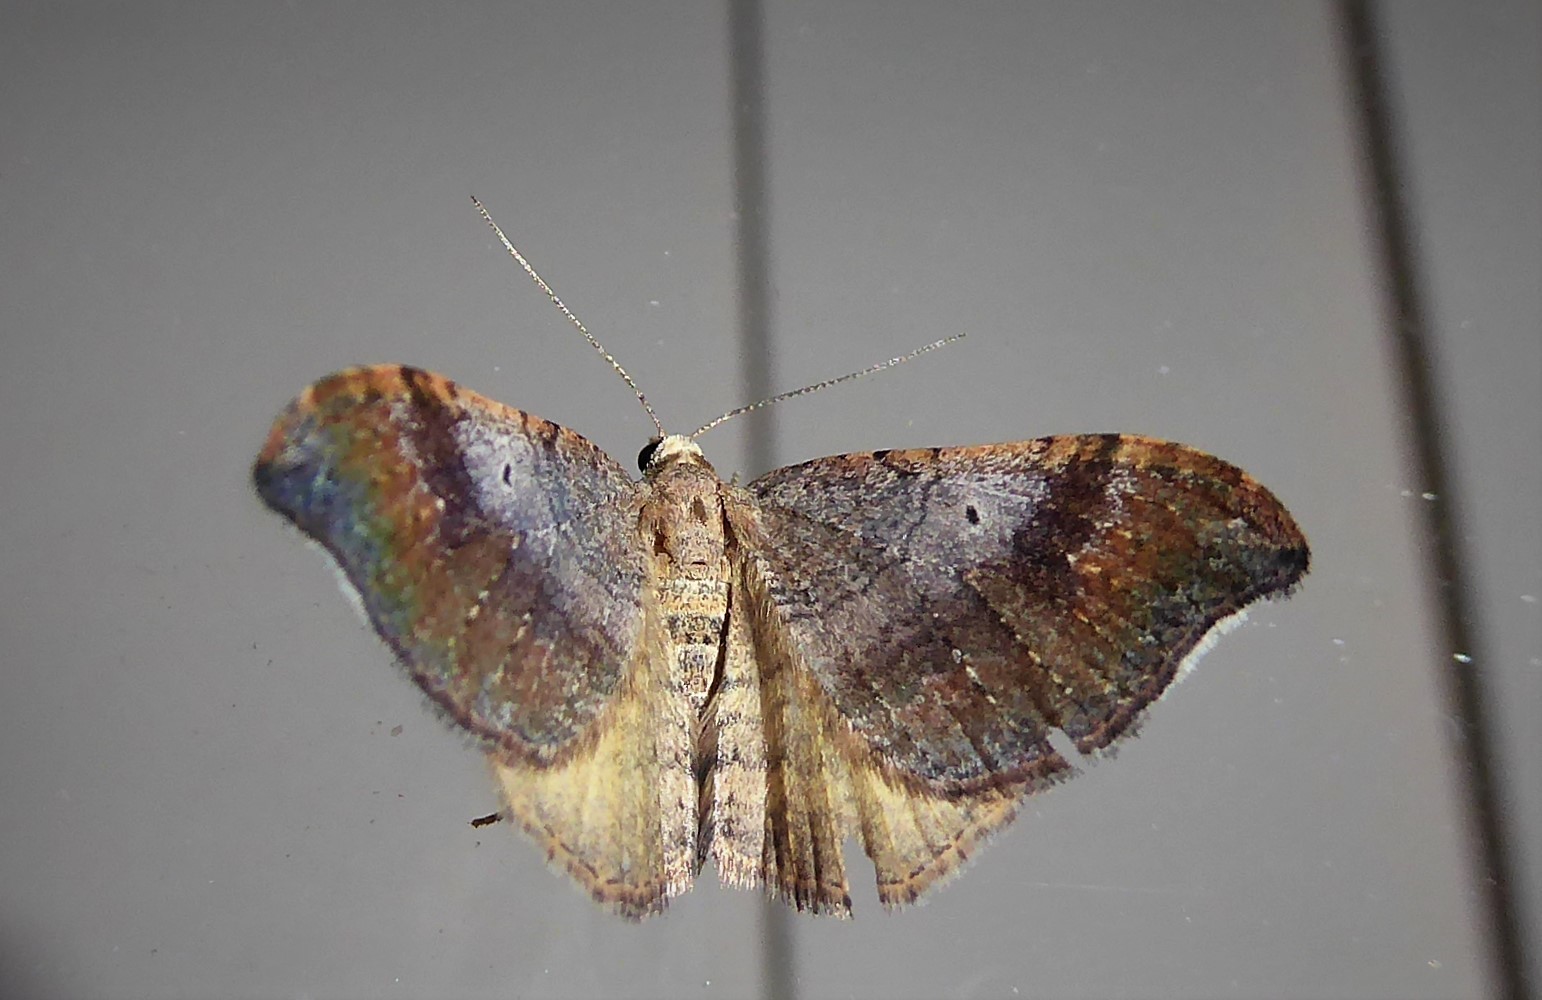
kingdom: Animalia
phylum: Arthropoda
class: Insecta
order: Lepidoptera
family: Geometridae
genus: Homodotis
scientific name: Homodotis megaspilata
